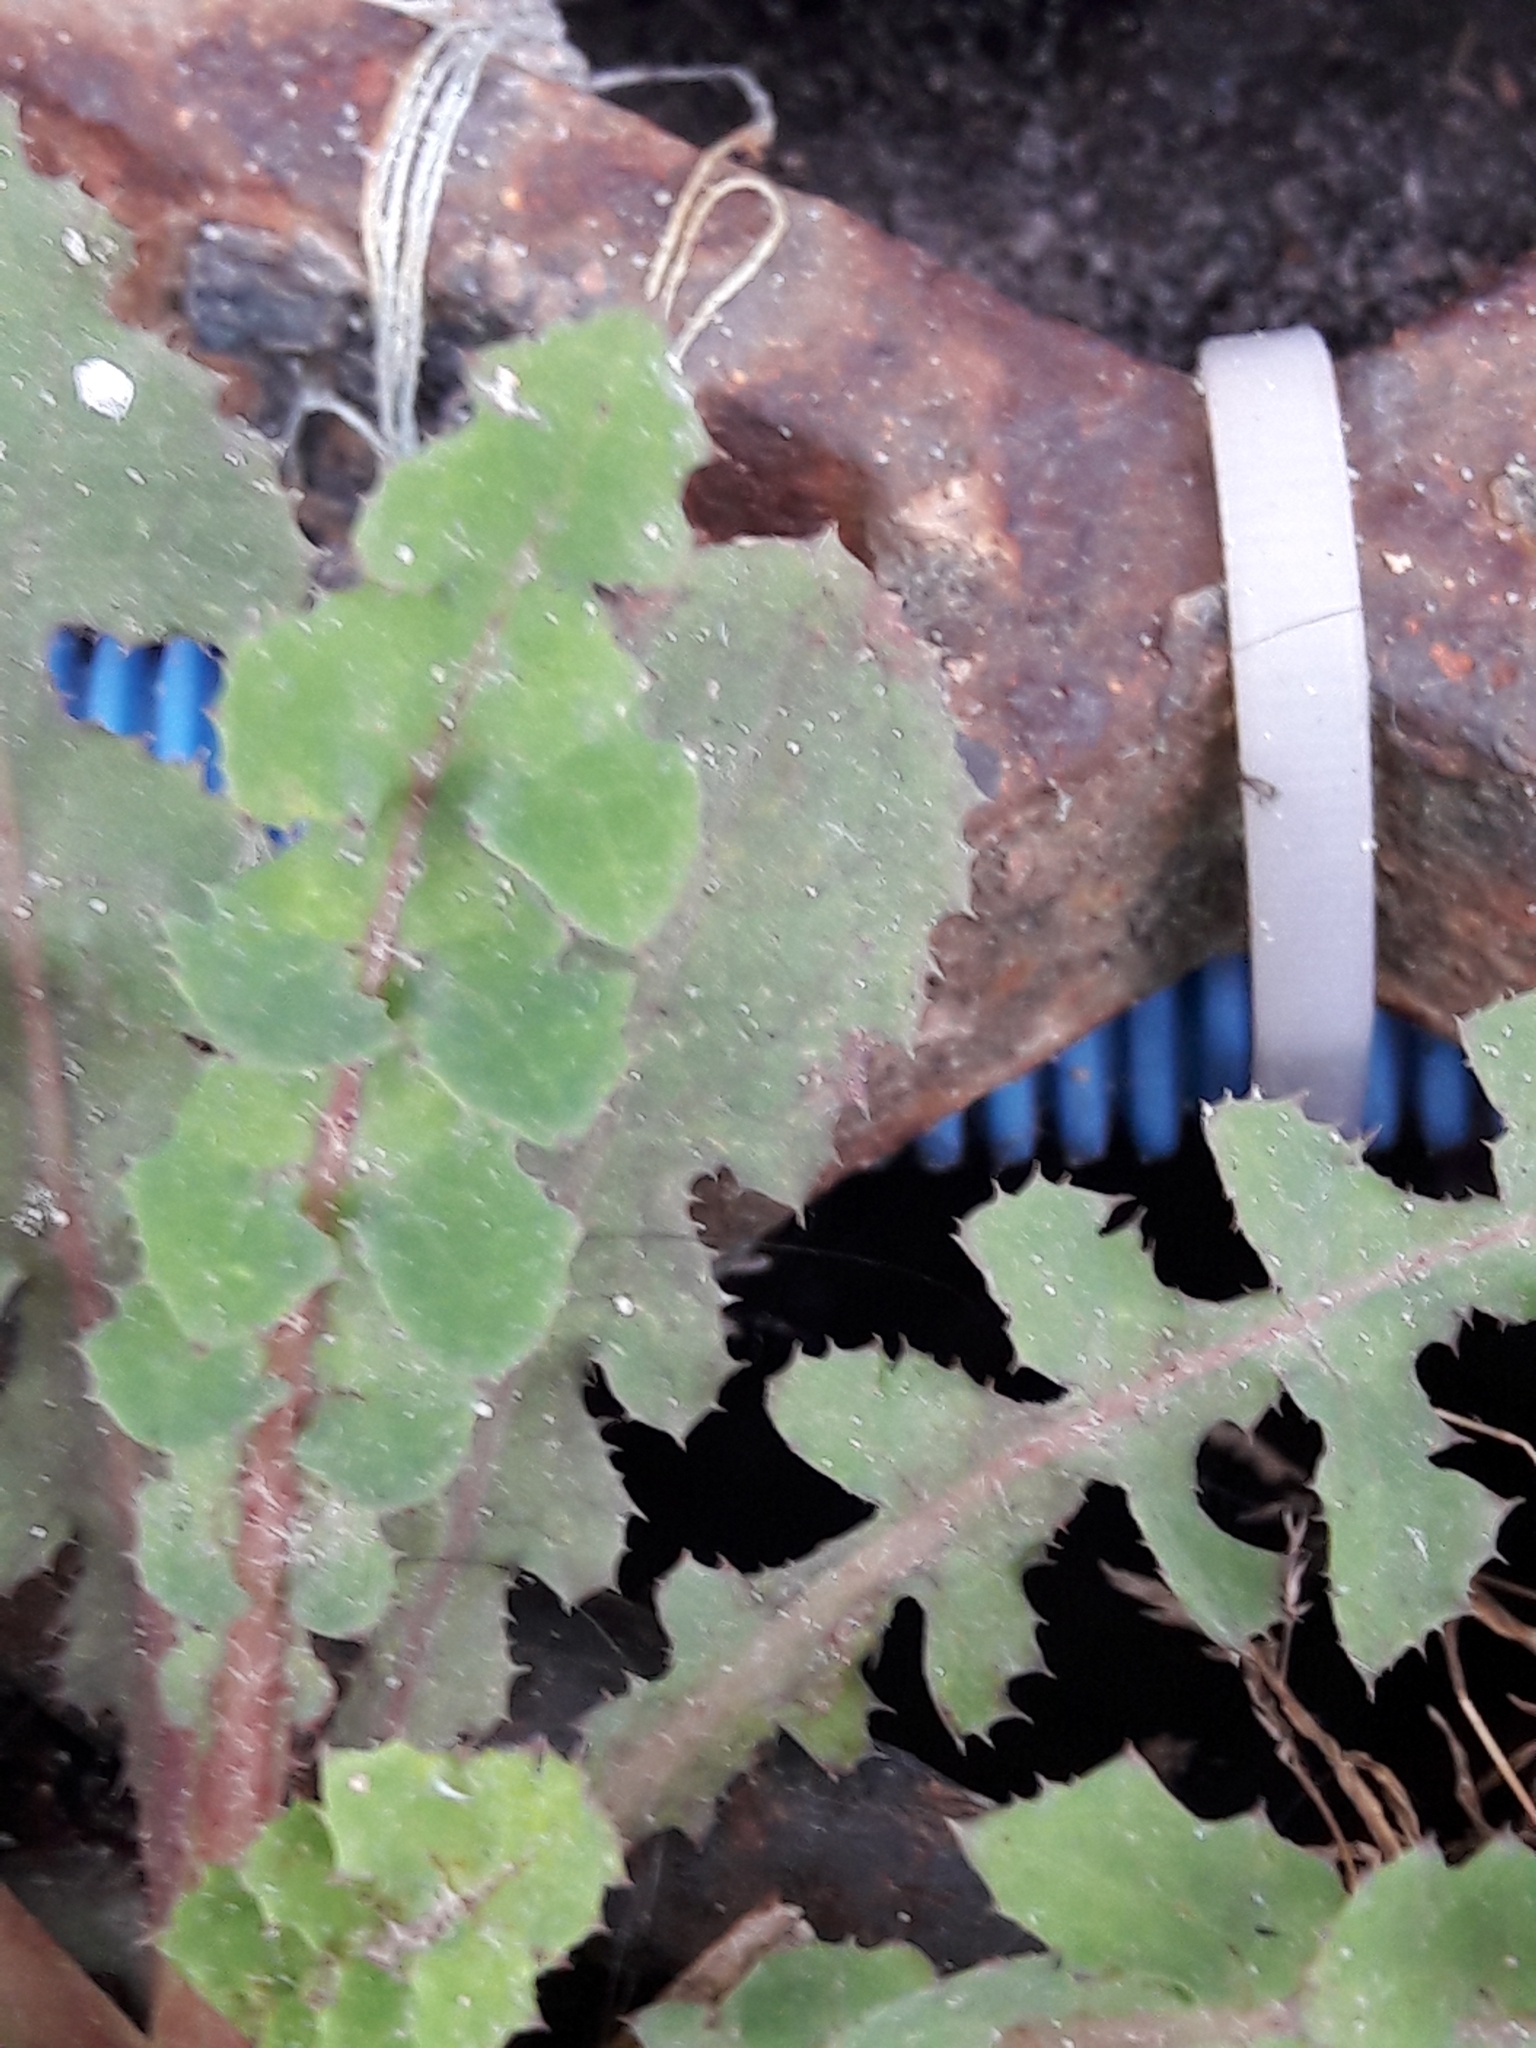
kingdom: Plantae
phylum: Tracheophyta
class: Magnoliopsida
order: Asterales
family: Asteraceae
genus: Sonchus
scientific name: Sonchus oleraceus
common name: Common sowthistle
